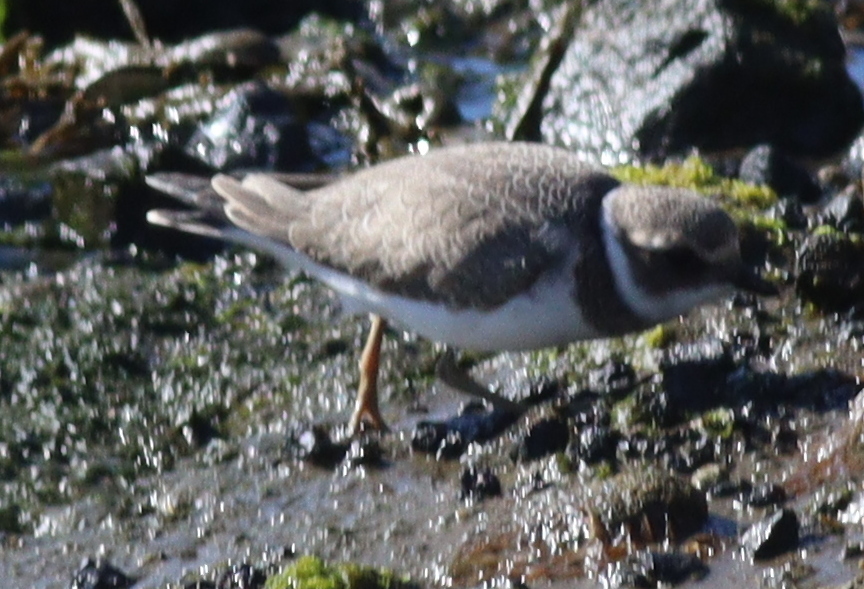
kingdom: Animalia
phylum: Chordata
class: Aves
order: Charadriiformes
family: Charadriidae
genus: Charadrius
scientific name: Charadrius hiaticula
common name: Common ringed plover
